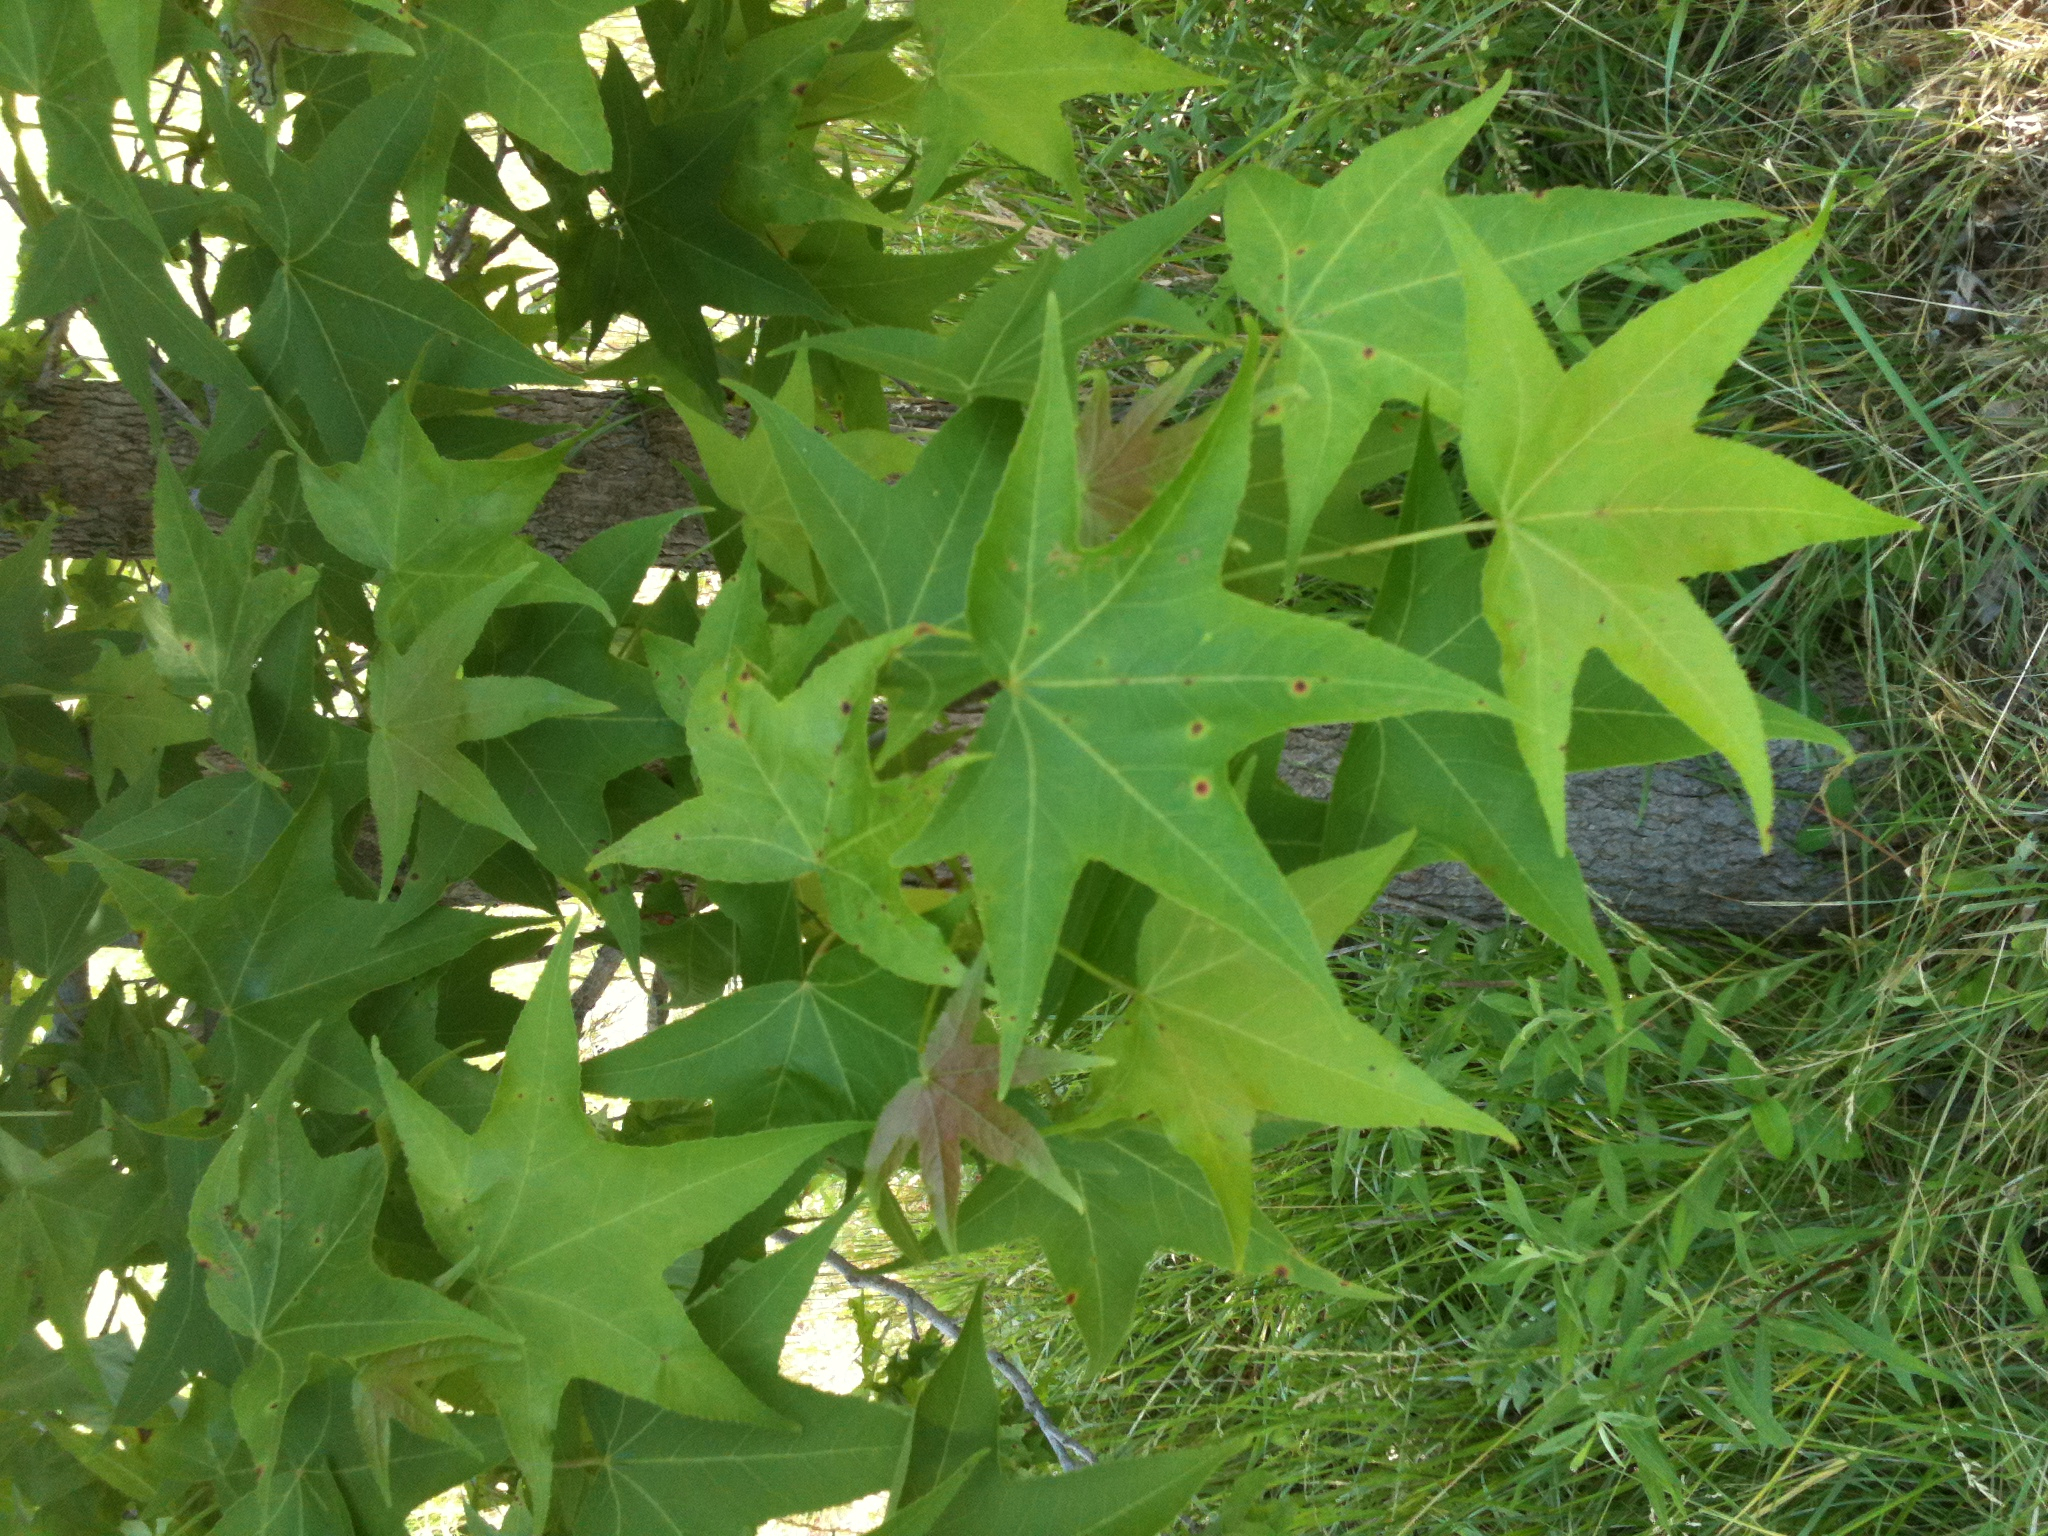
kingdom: Plantae
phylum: Tracheophyta
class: Magnoliopsida
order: Saxifragales
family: Altingiaceae
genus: Liquidambar
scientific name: Liquidambar styraciflua
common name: Sweet gum
